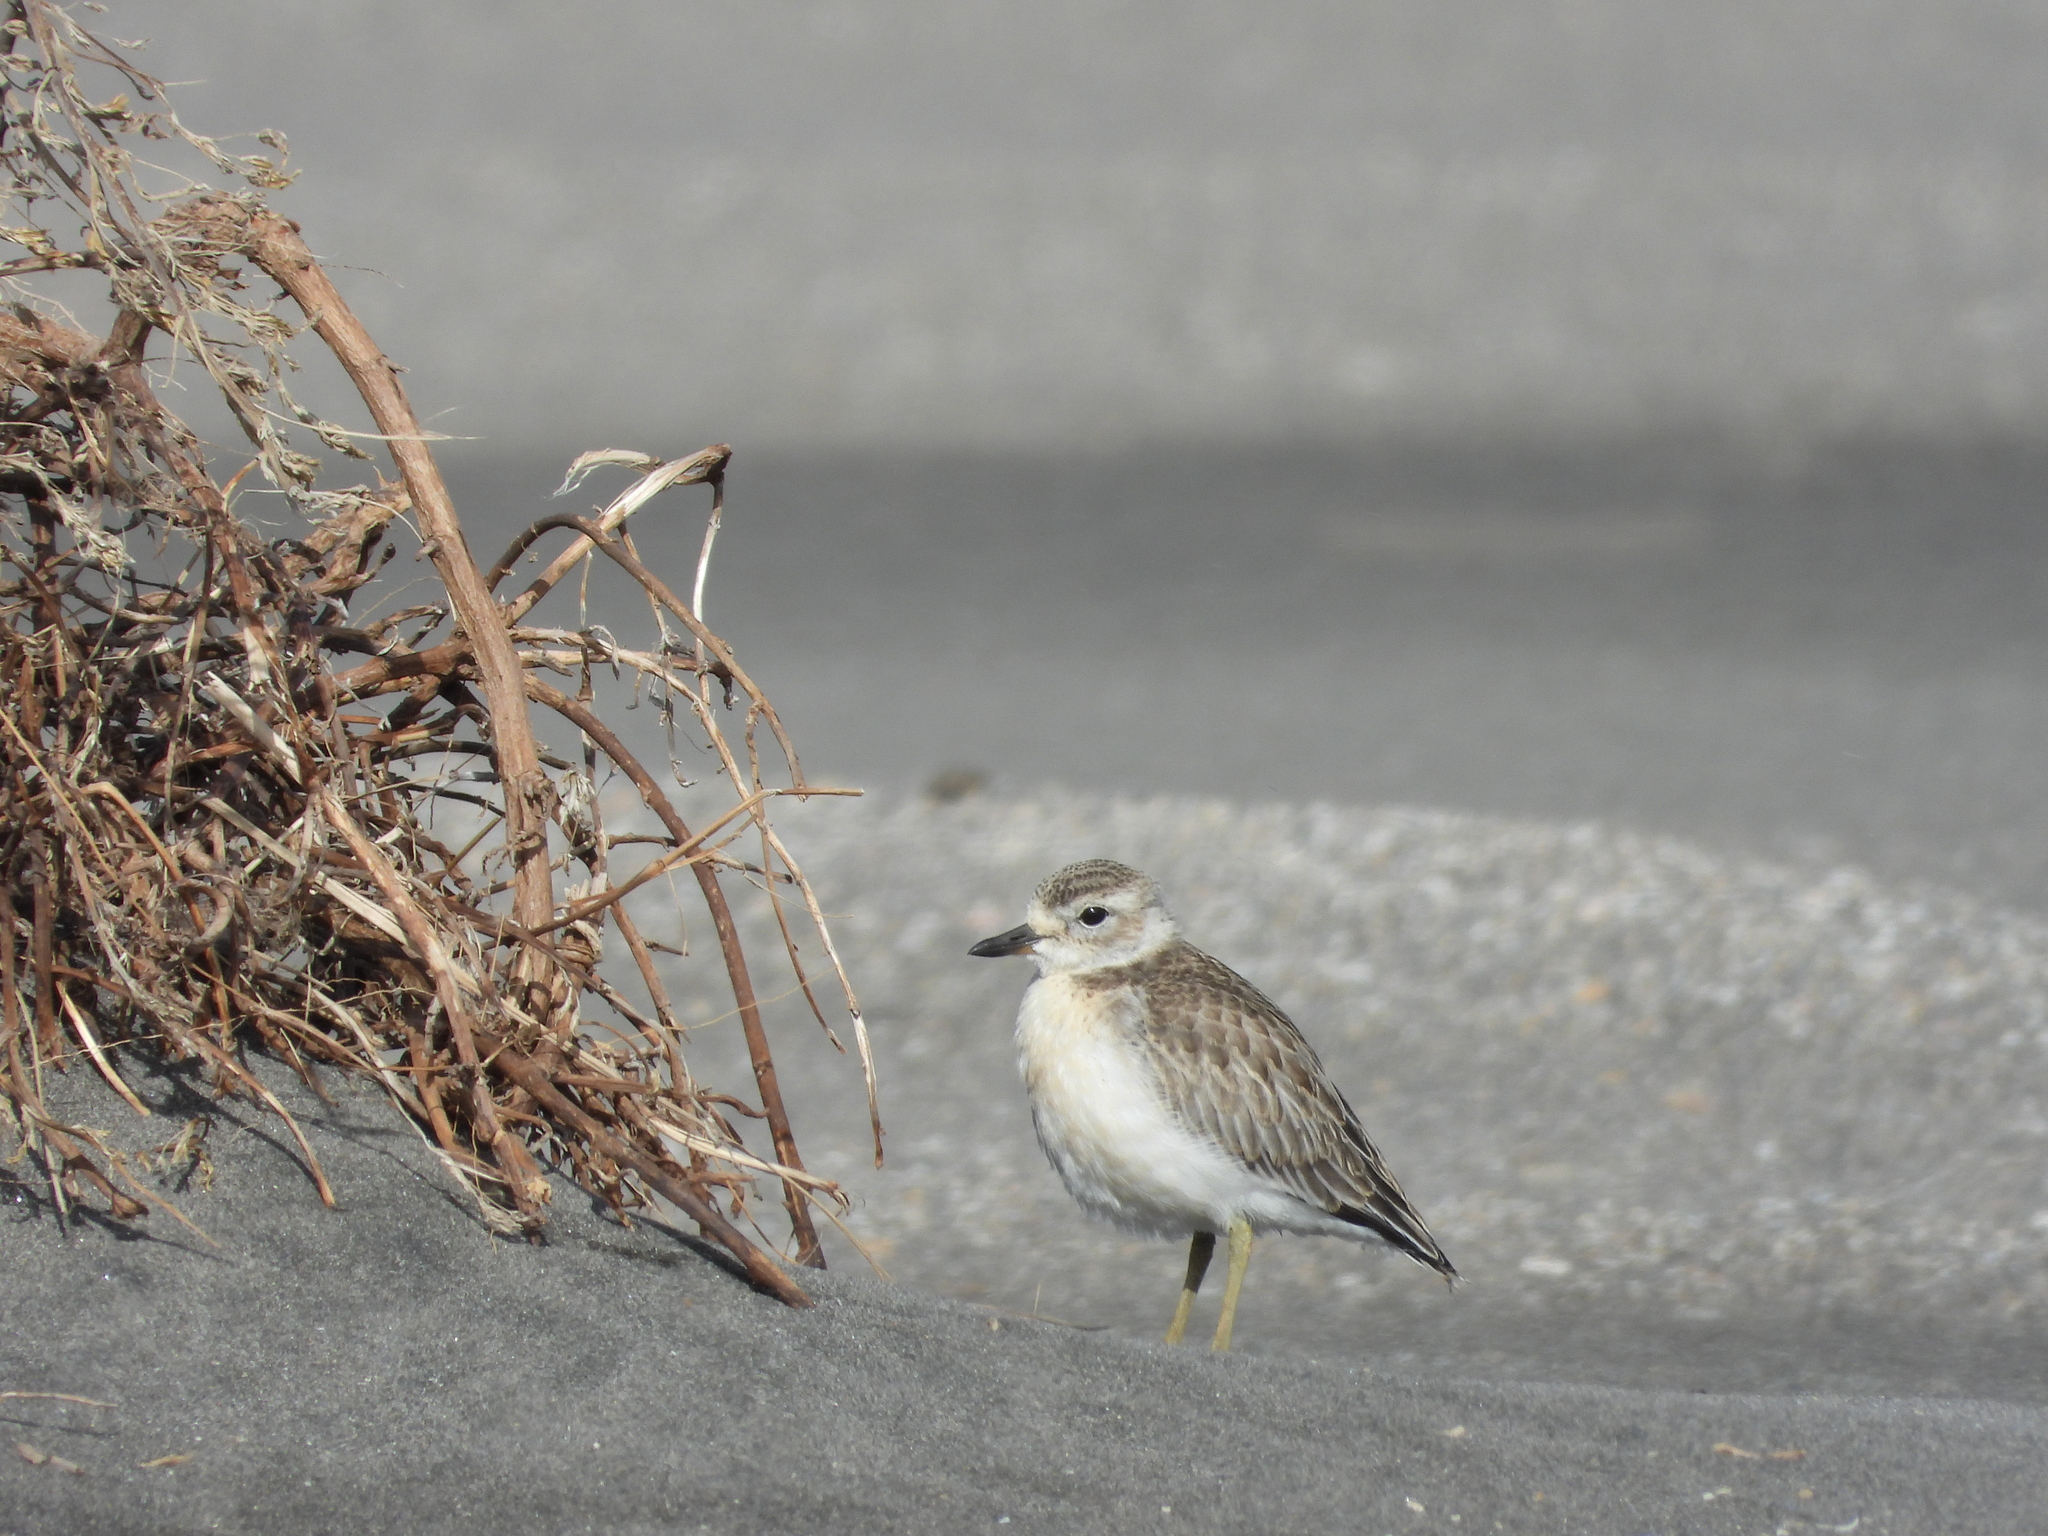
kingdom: Animalia
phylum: Chordata
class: Aves
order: Charadriiformes
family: Charadriidae
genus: Anarhynchus
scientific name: Anarhynchus
